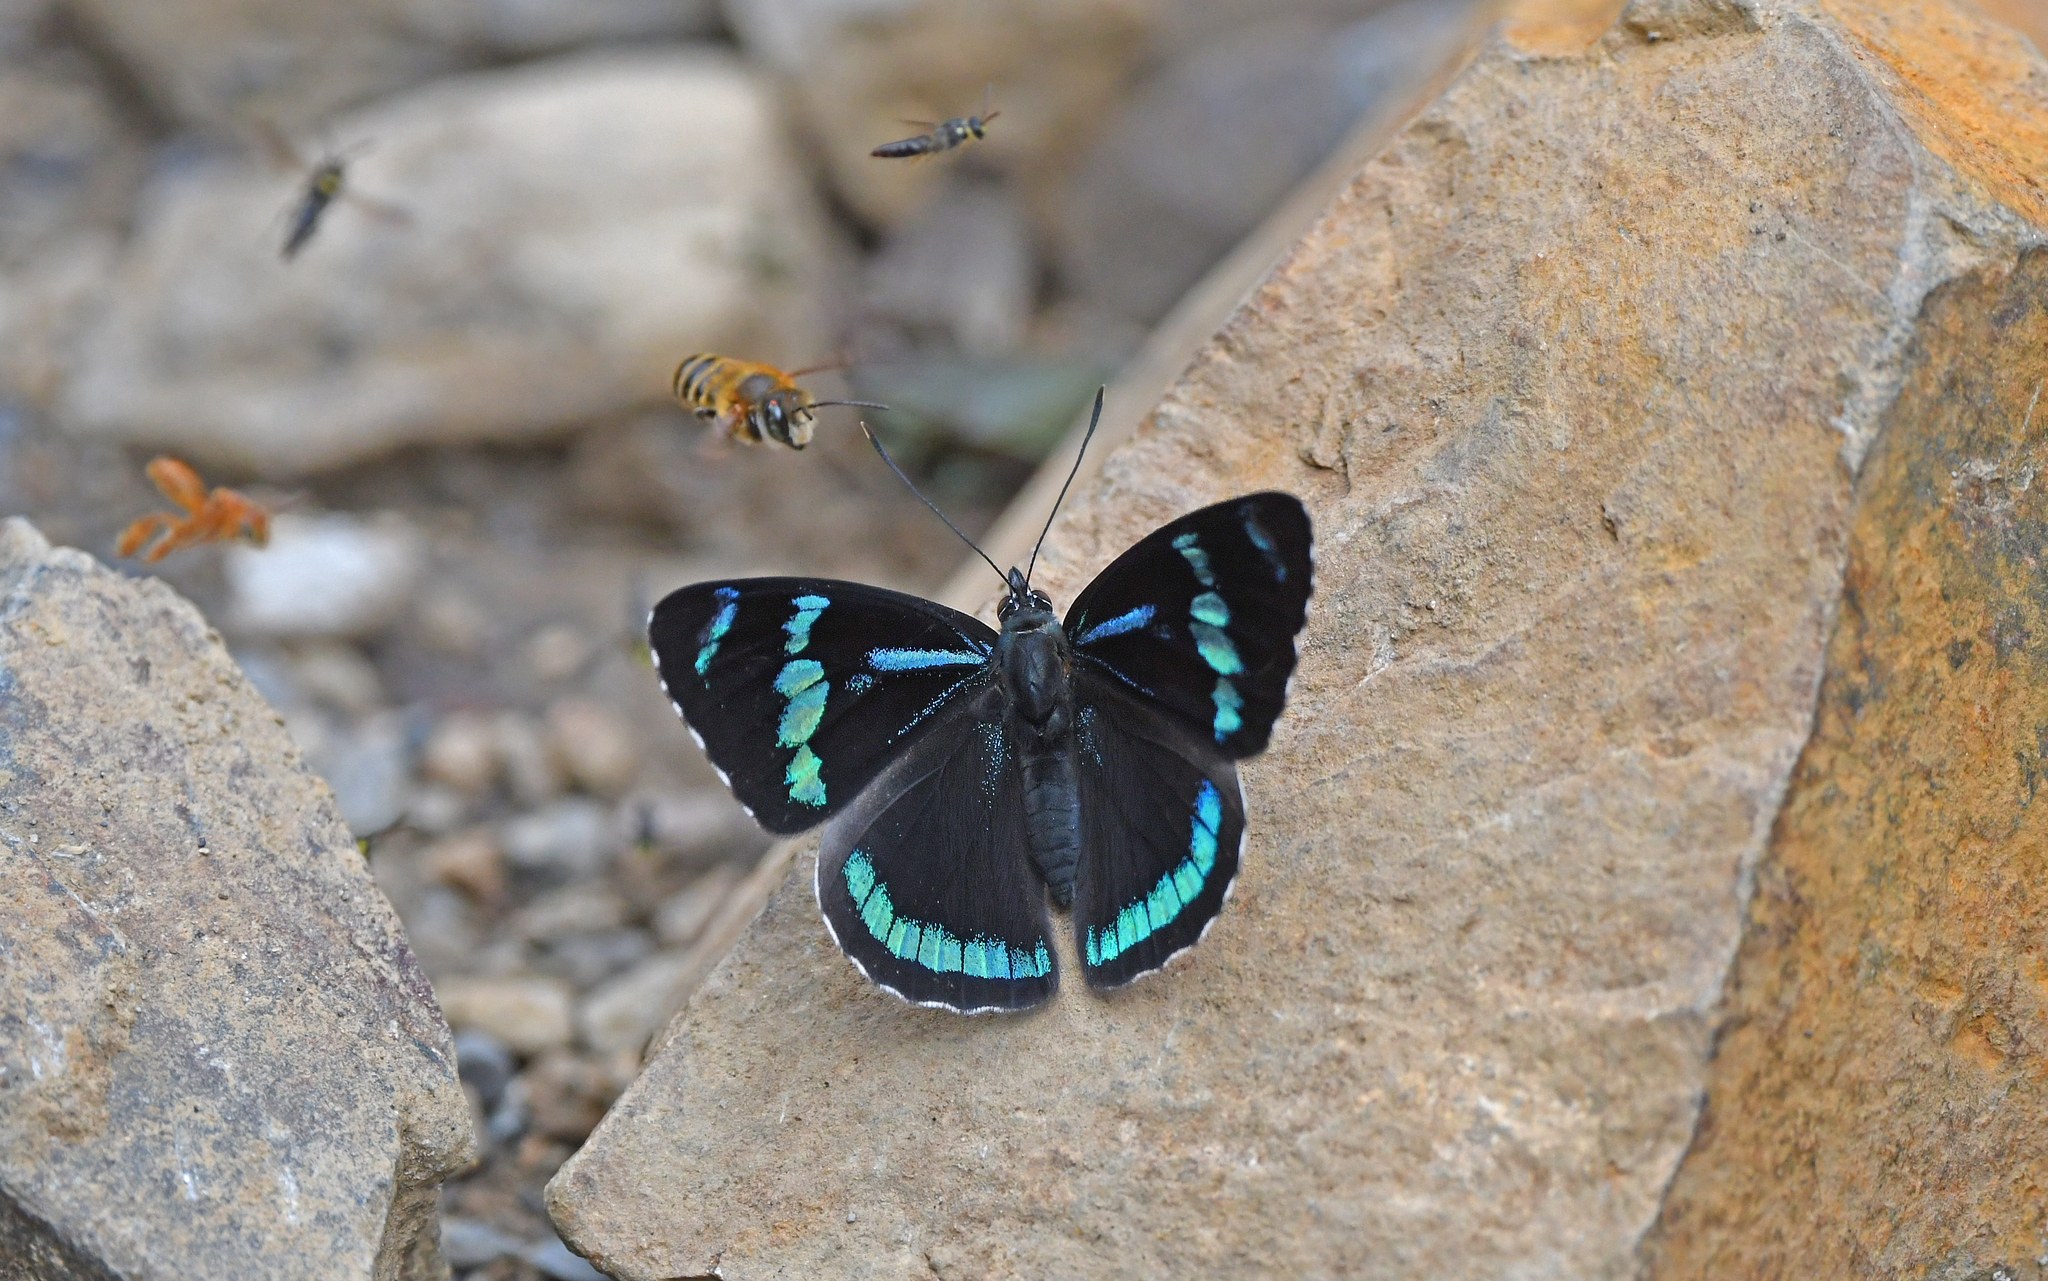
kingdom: Animalia
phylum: Arthropoda
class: Insecta
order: Lepidoptera
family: Nymphalidae
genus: Perisama
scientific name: Perisama camelita
